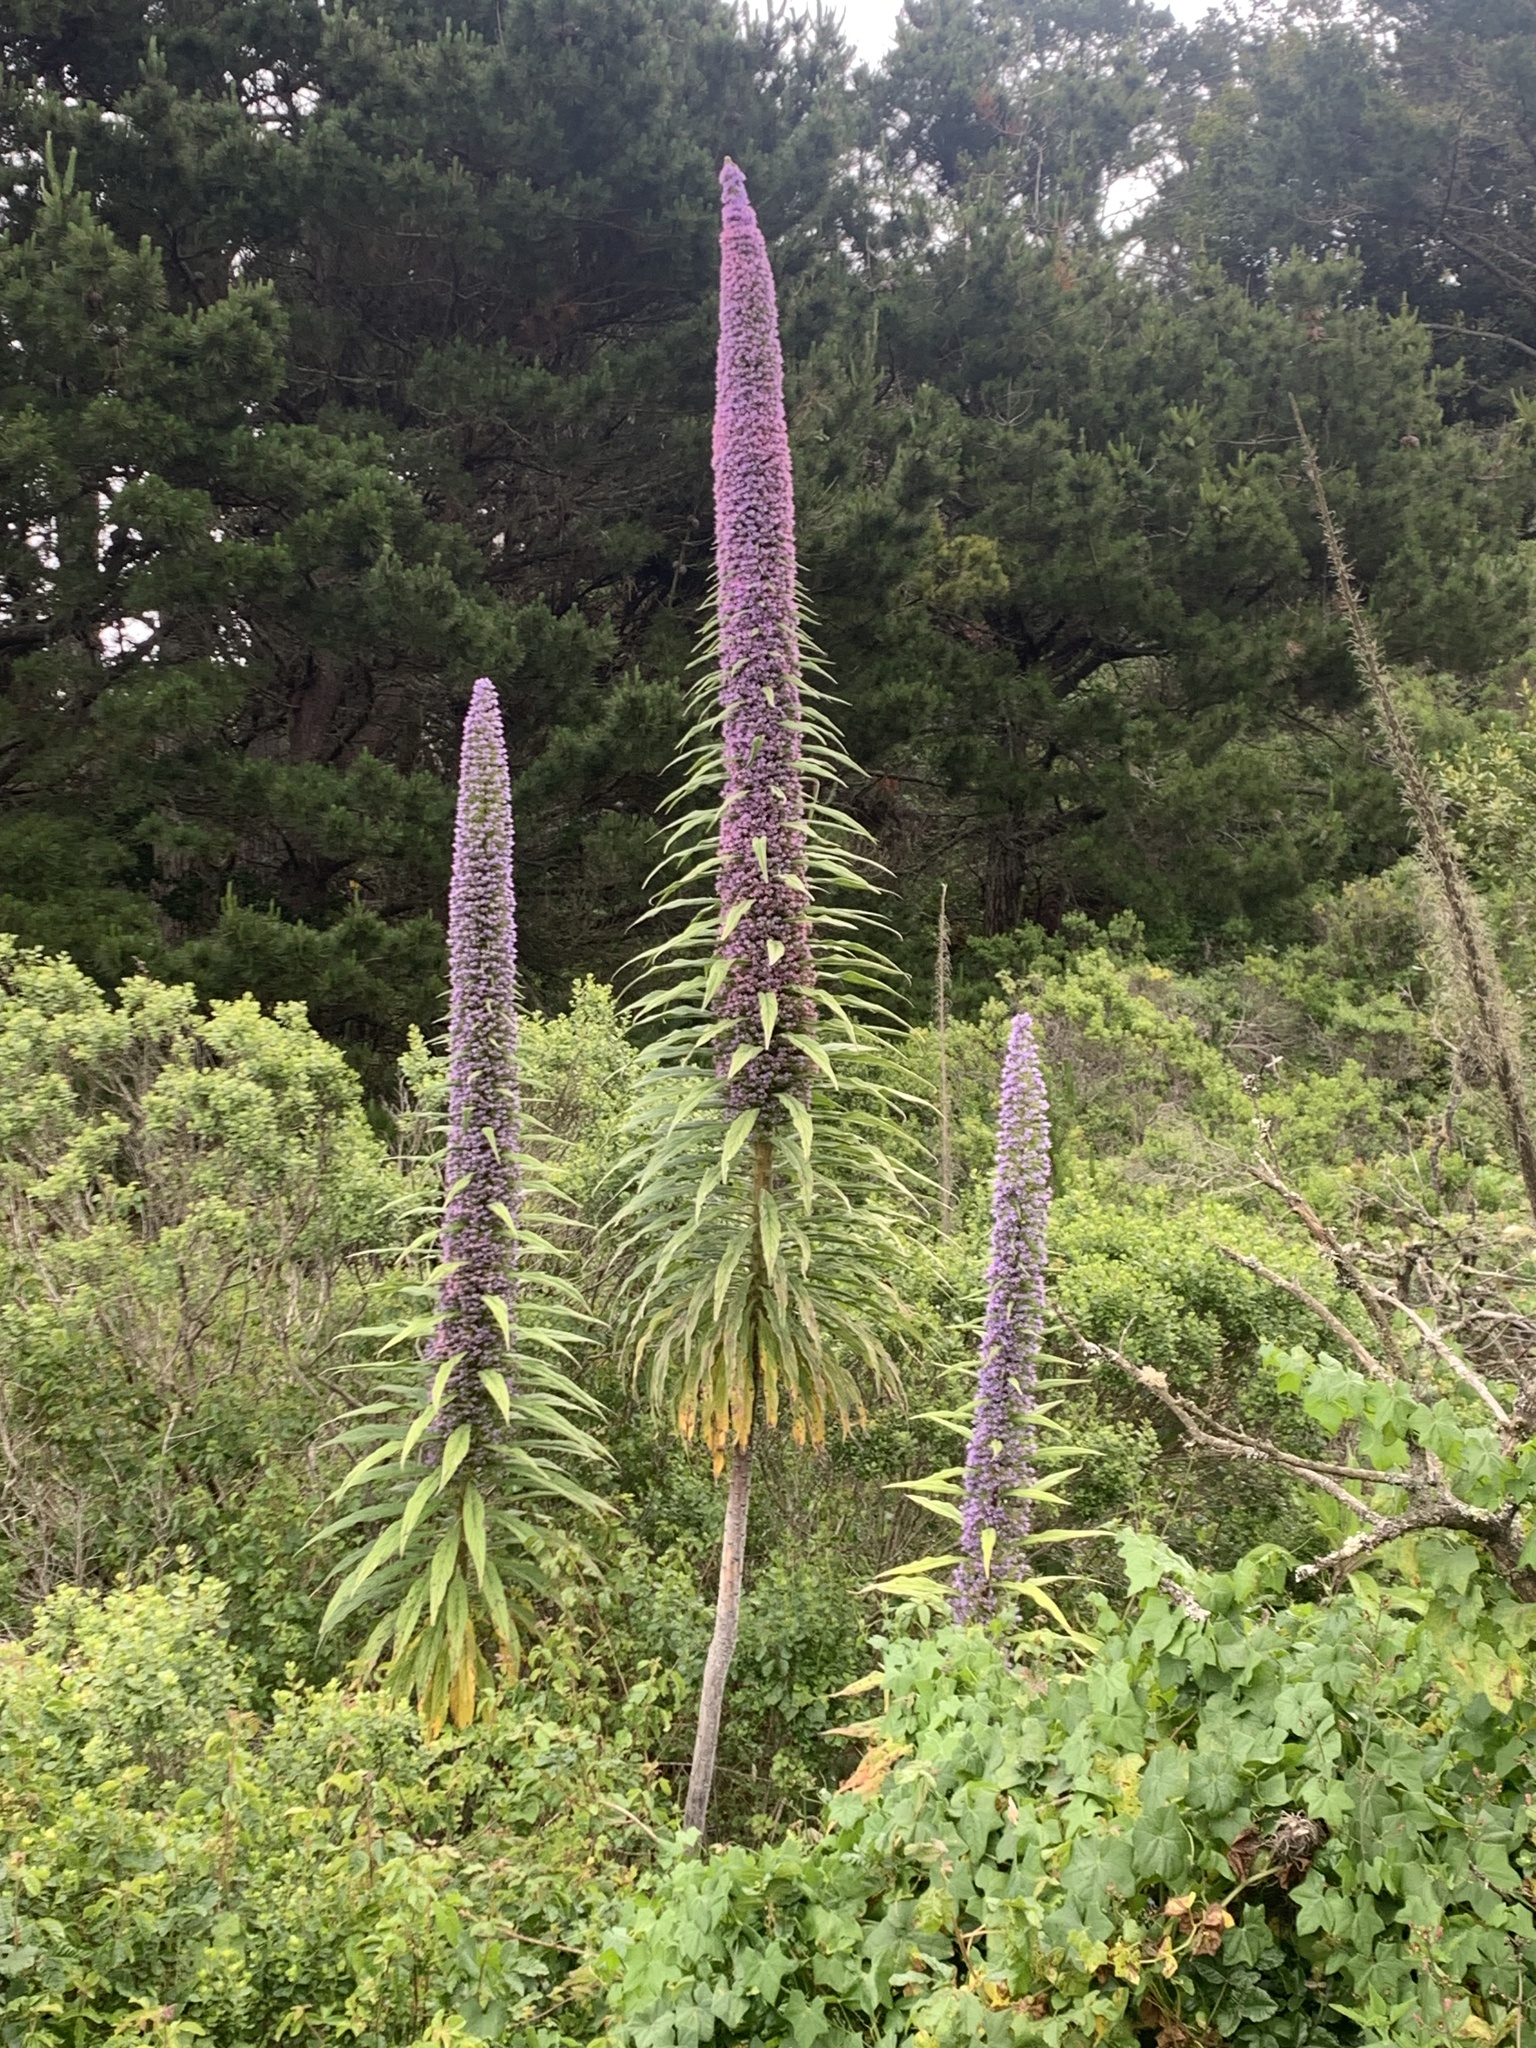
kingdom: Plantae
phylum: Tracheophyta
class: Magnoliopsida
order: Boraginales
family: Boraginaceae
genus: Echium
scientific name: Echium pininana
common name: Giant viper's-bugloss
